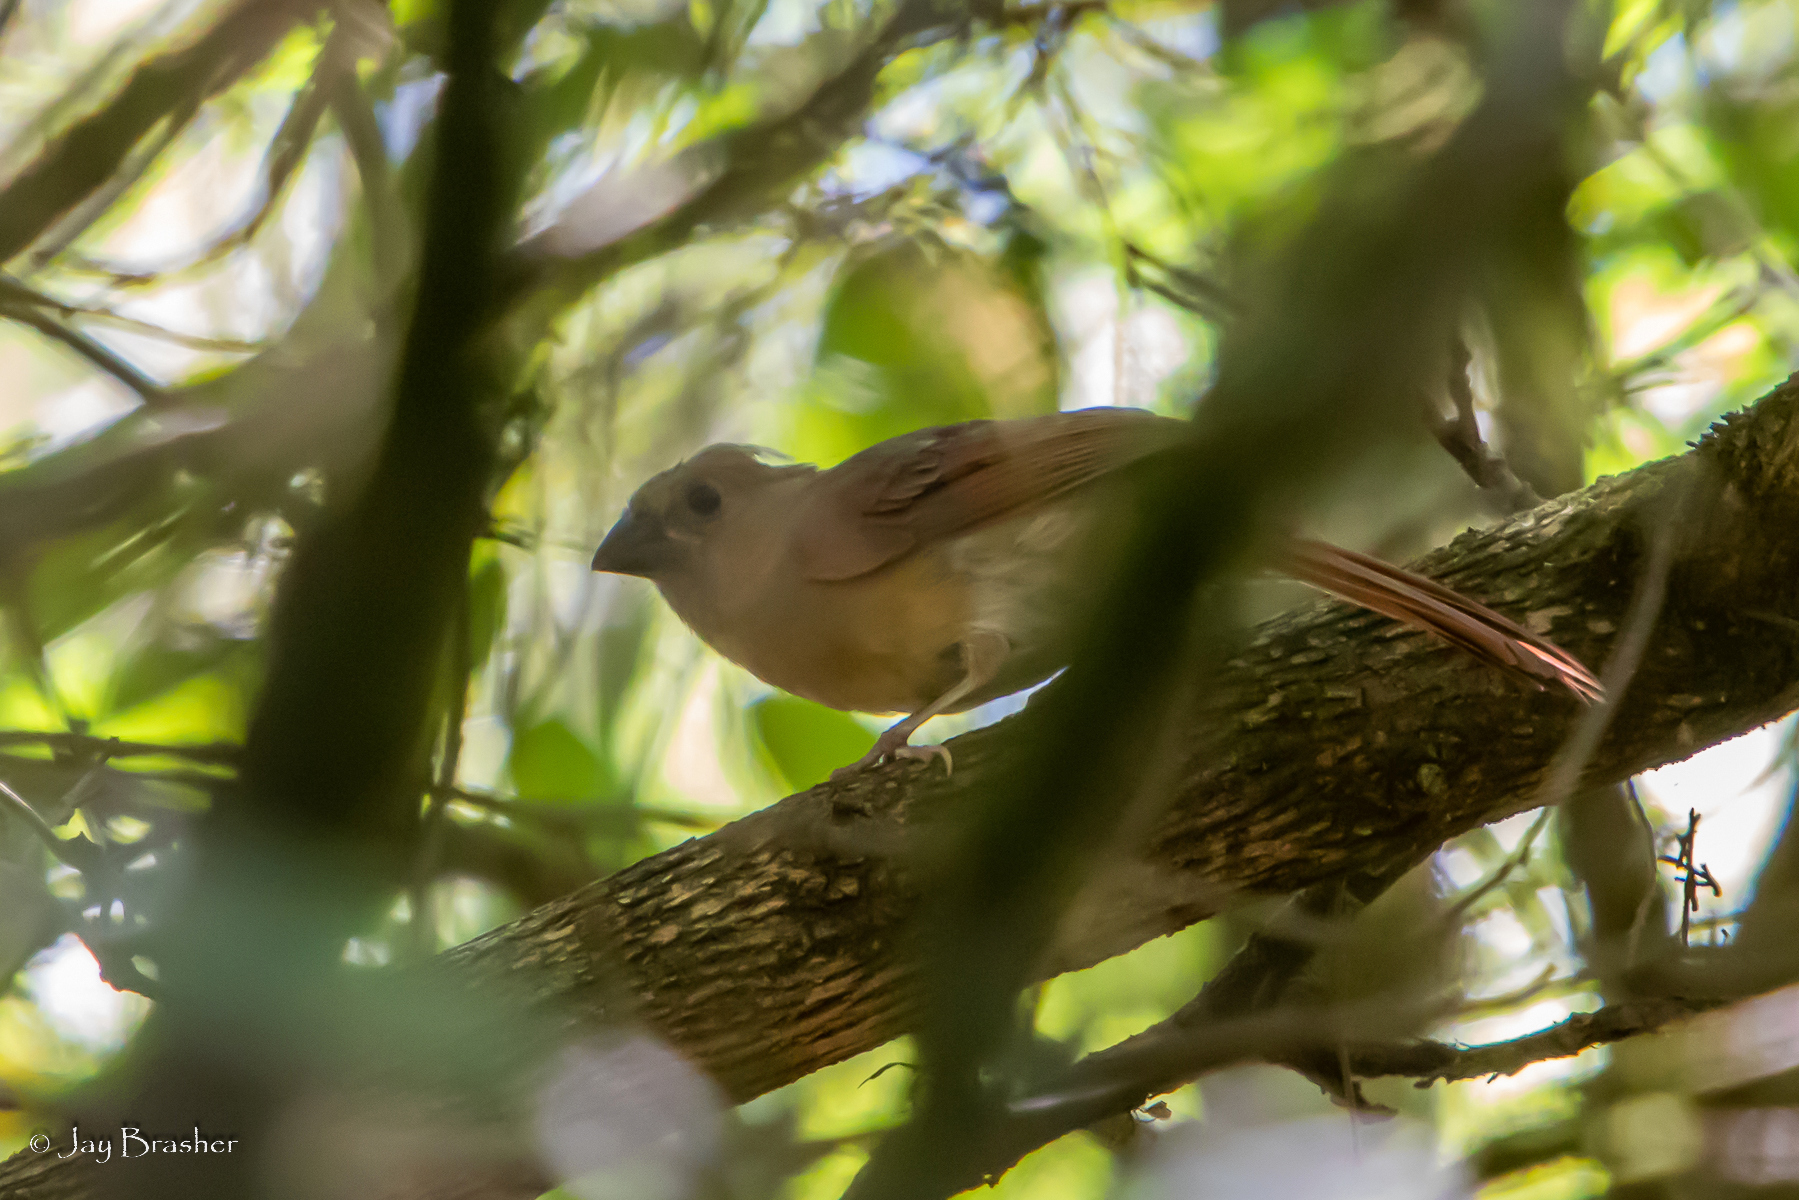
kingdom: Animalia
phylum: Chordata
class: Aves
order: Passeriformes
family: Cardinalidae
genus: Cardinalis
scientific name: Cardinalis cardinalis
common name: Northern cardinal
